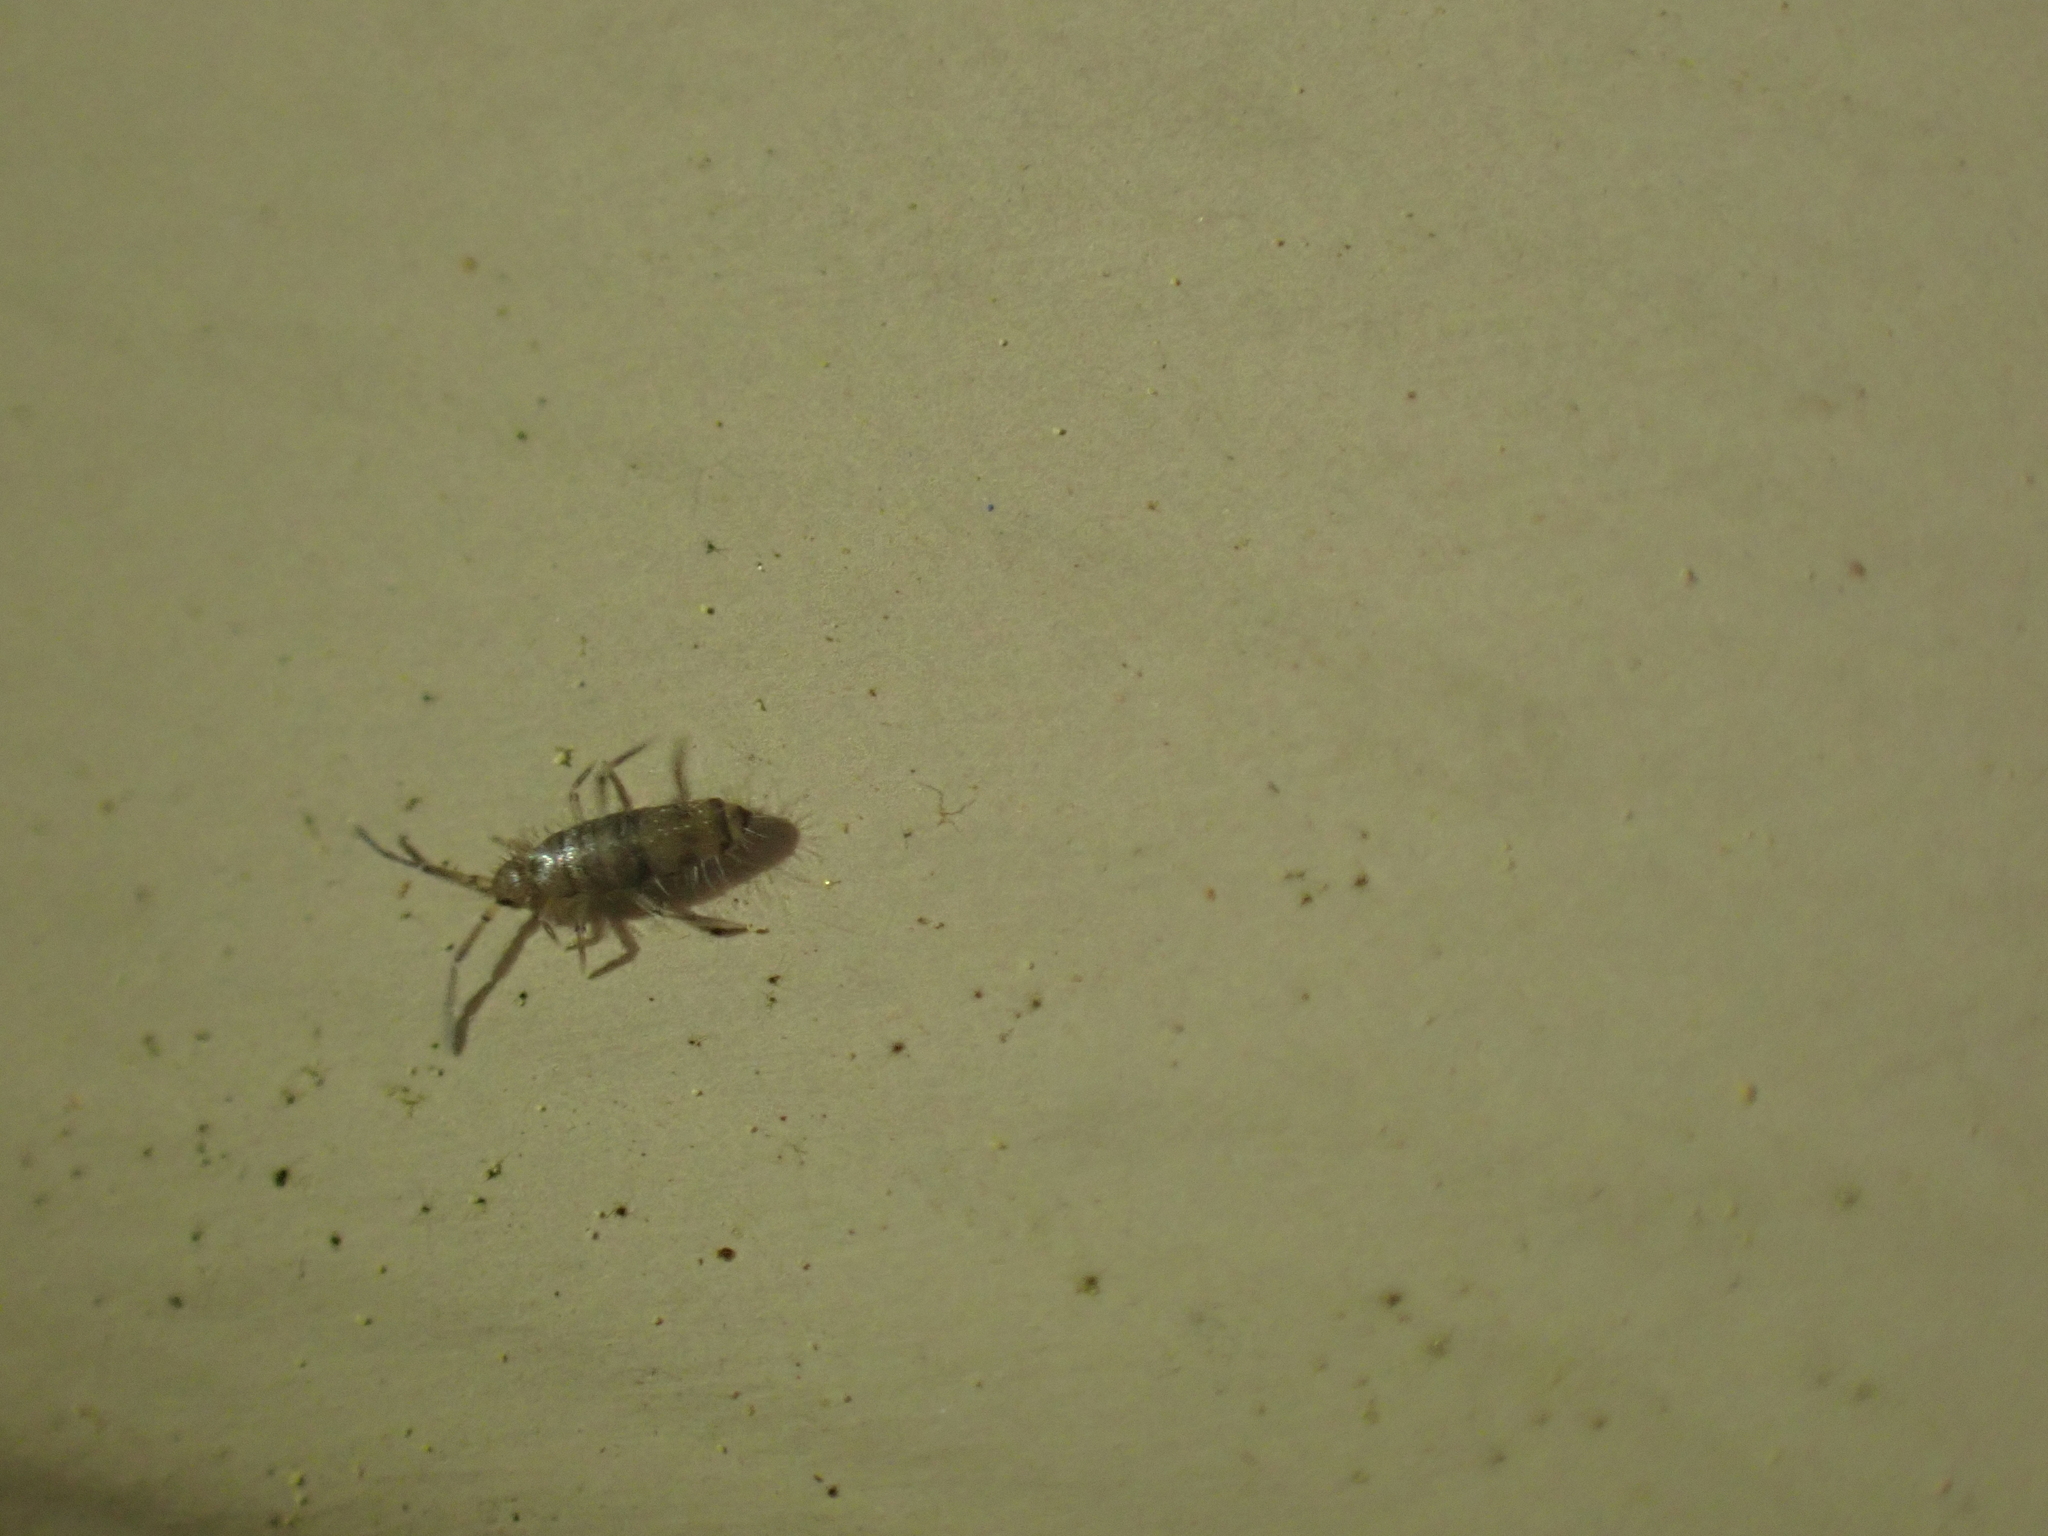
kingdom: Animalia
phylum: Arthropoda
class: Collembola
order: Entomobryomorpha
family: Entomobryidae
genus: Willowsia
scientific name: Willowsia nigromaculata
